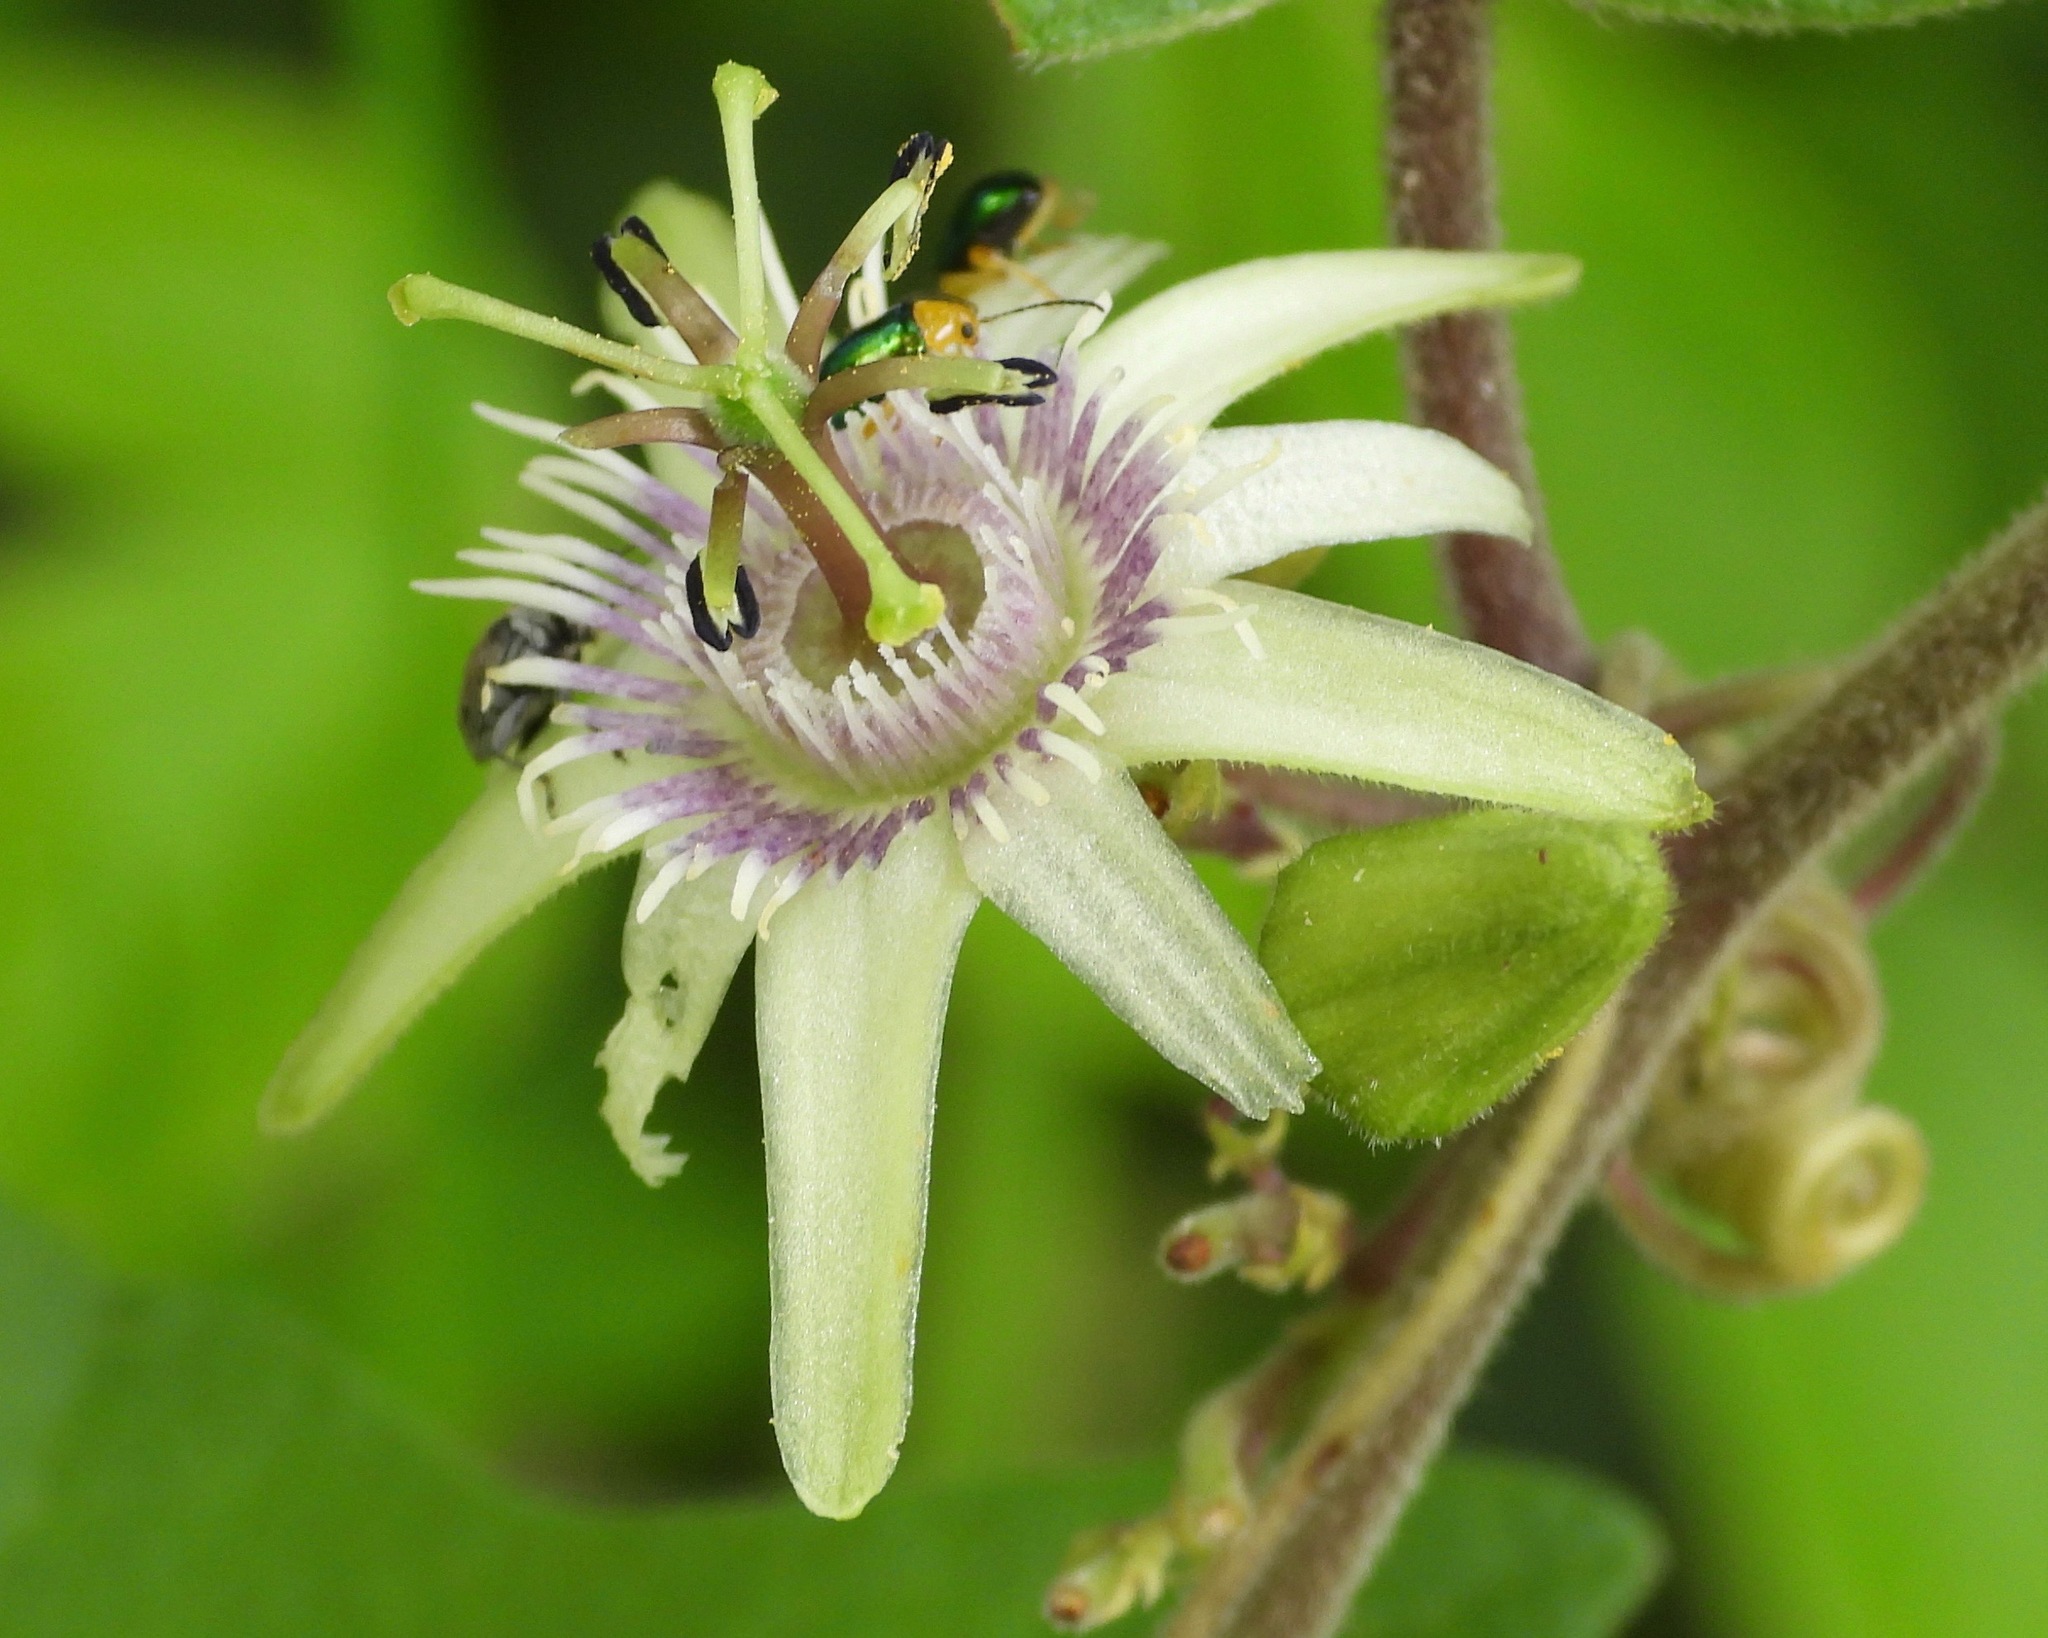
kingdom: Plantae
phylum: Tracheophyta
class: Magnoliopsida
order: Malpighiales
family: Passifloraceae
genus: Passiflora
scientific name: Passiflora sexflora
